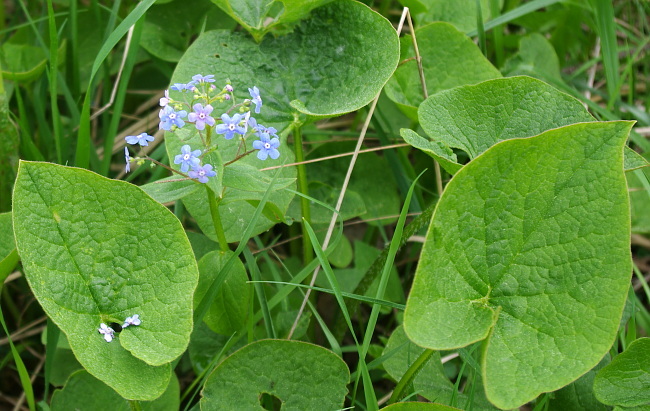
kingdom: Plantae
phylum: Tracheophyta
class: Magnoliopsida
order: Boraginales
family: Boraginaceae
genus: Brunnera
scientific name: Brunnera sibirica
